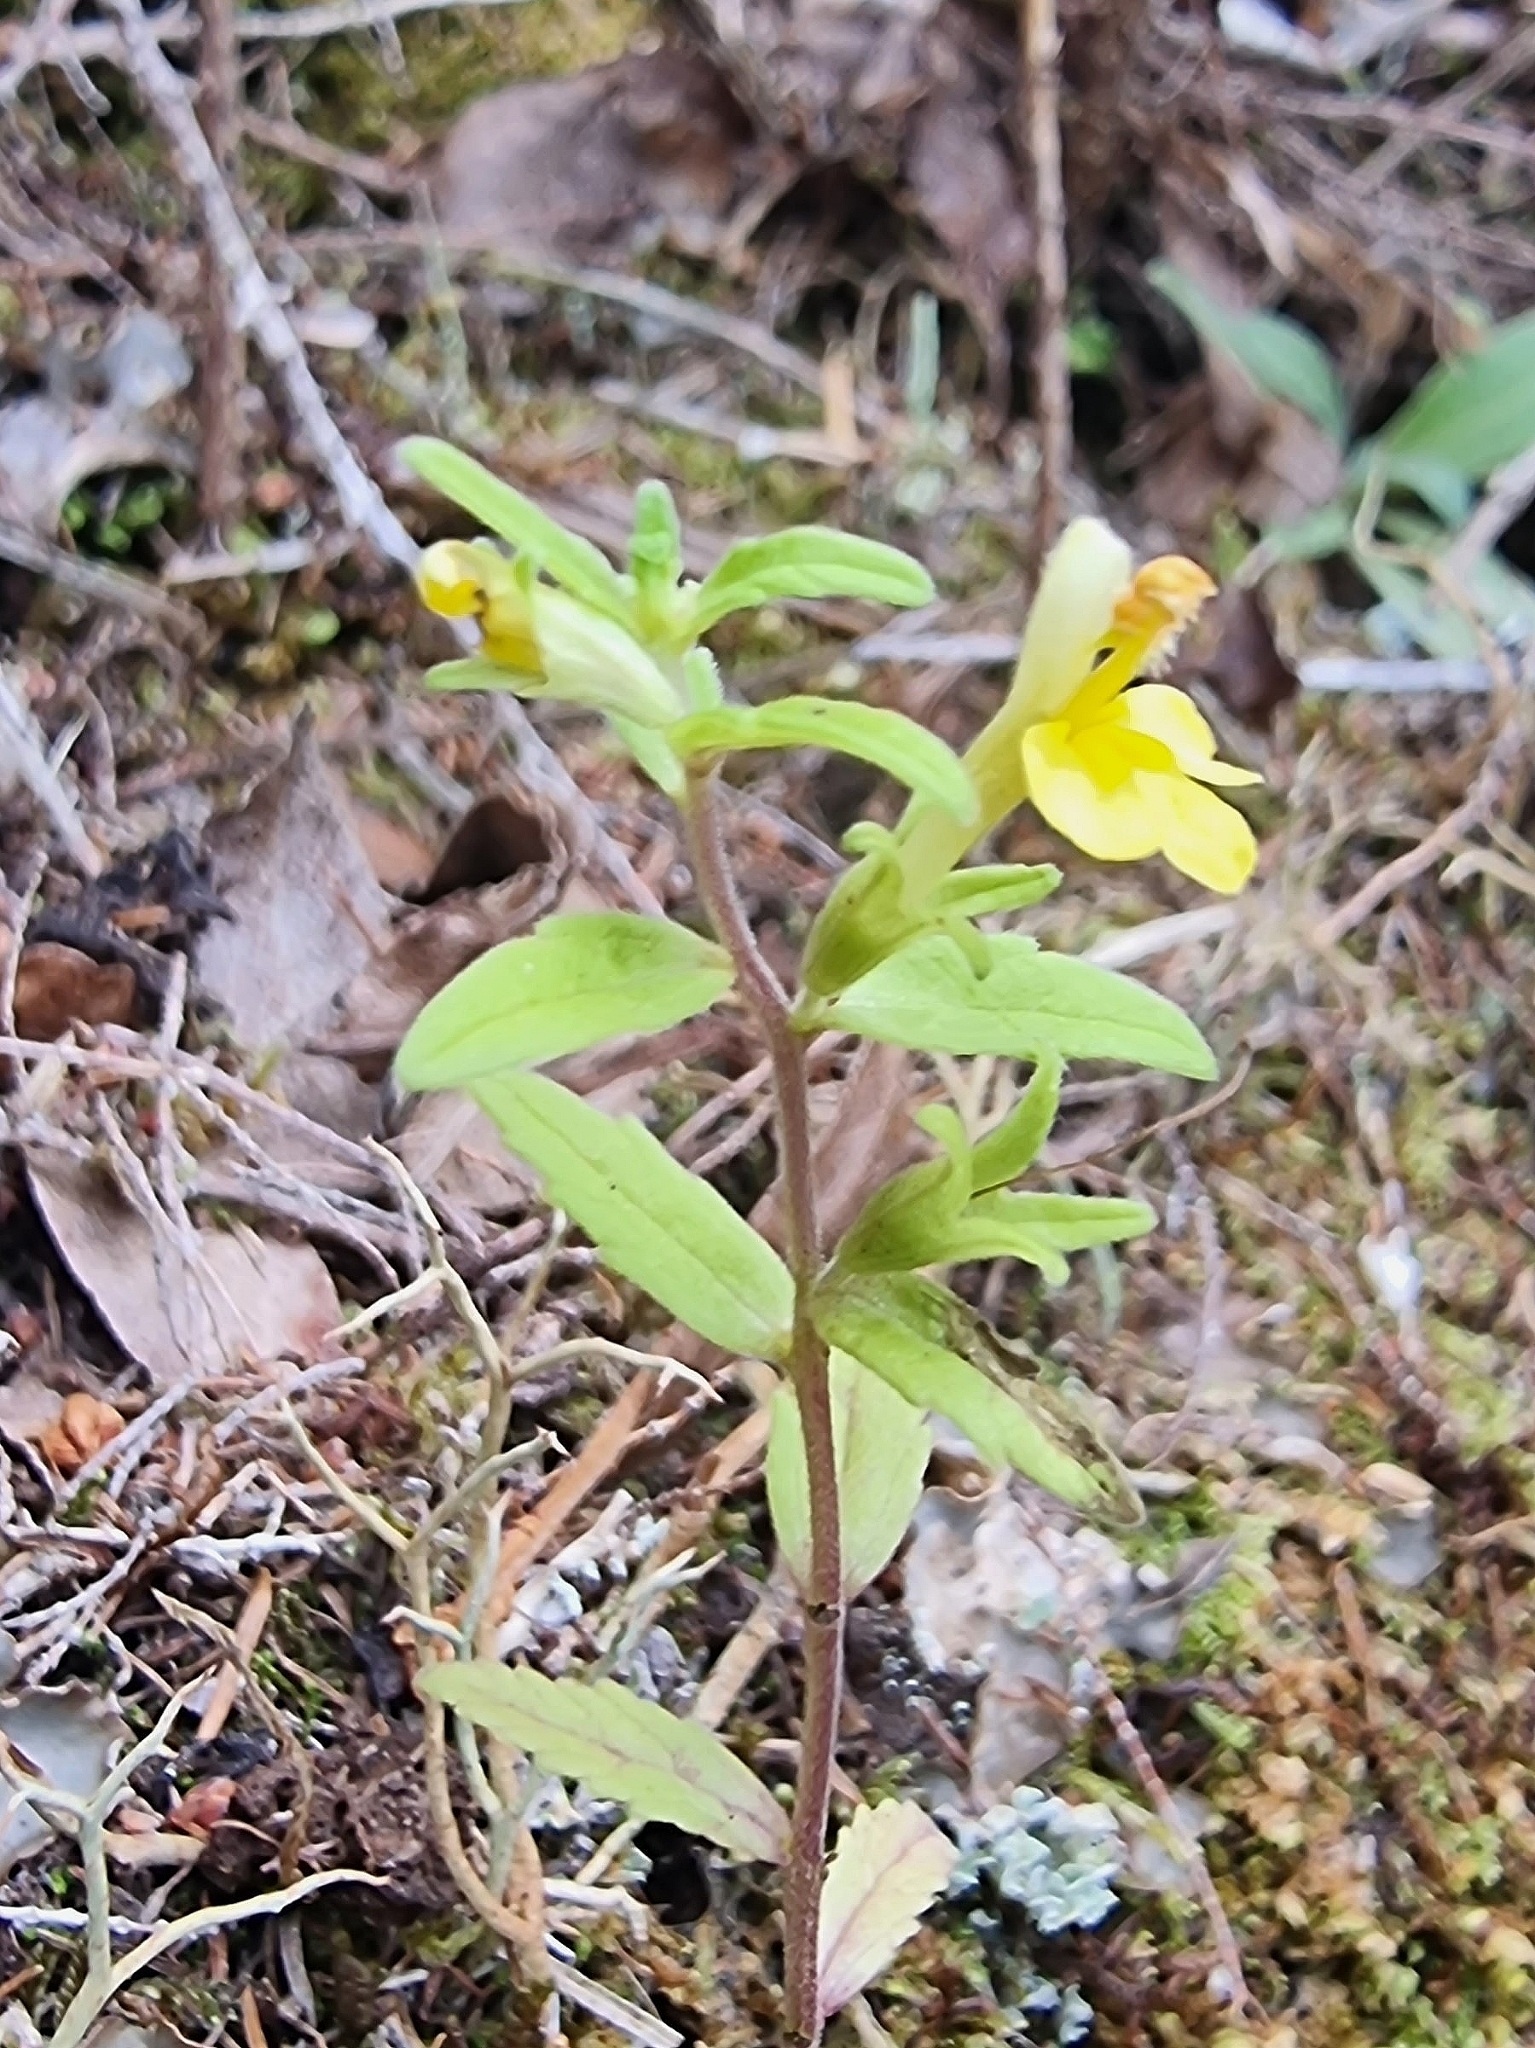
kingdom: Plantae
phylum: Tracheophyta
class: Magnoliopsida
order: Lamiales
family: Orobanchaceae
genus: Odontites
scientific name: Odontites hollianus
